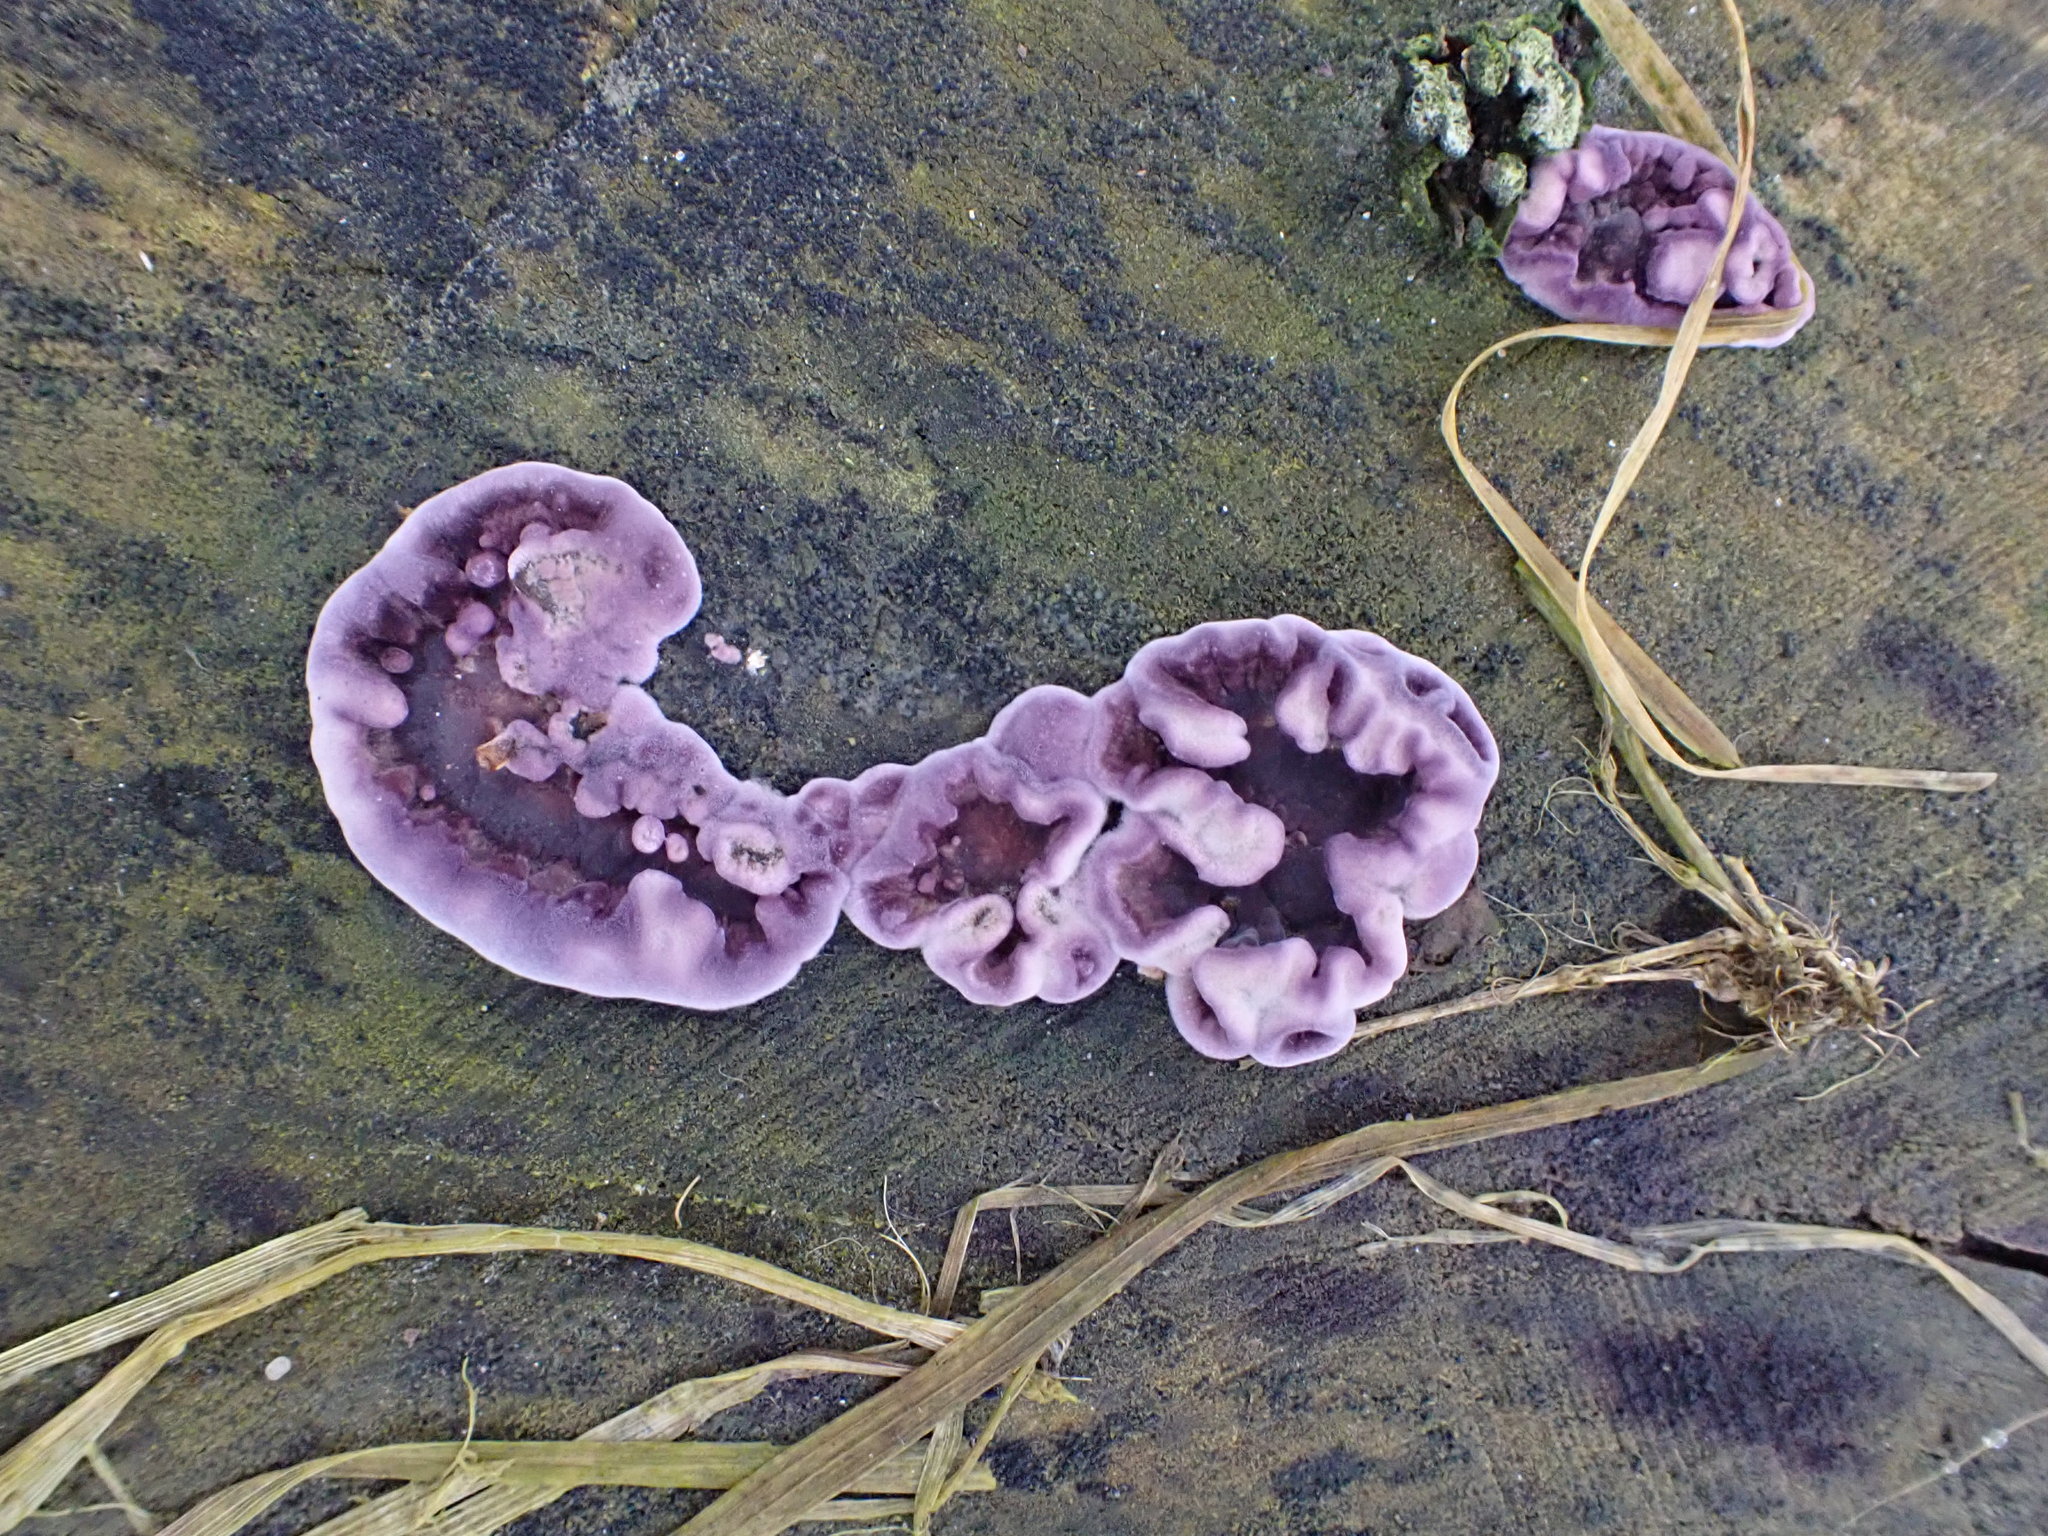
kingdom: Fungi
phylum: Basidiomycota
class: Agaricomycetes
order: Agaricales
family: Cyphellaceae
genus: Chondrostereum
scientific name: Chondrostereum purpureum
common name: Silver leaf disease
